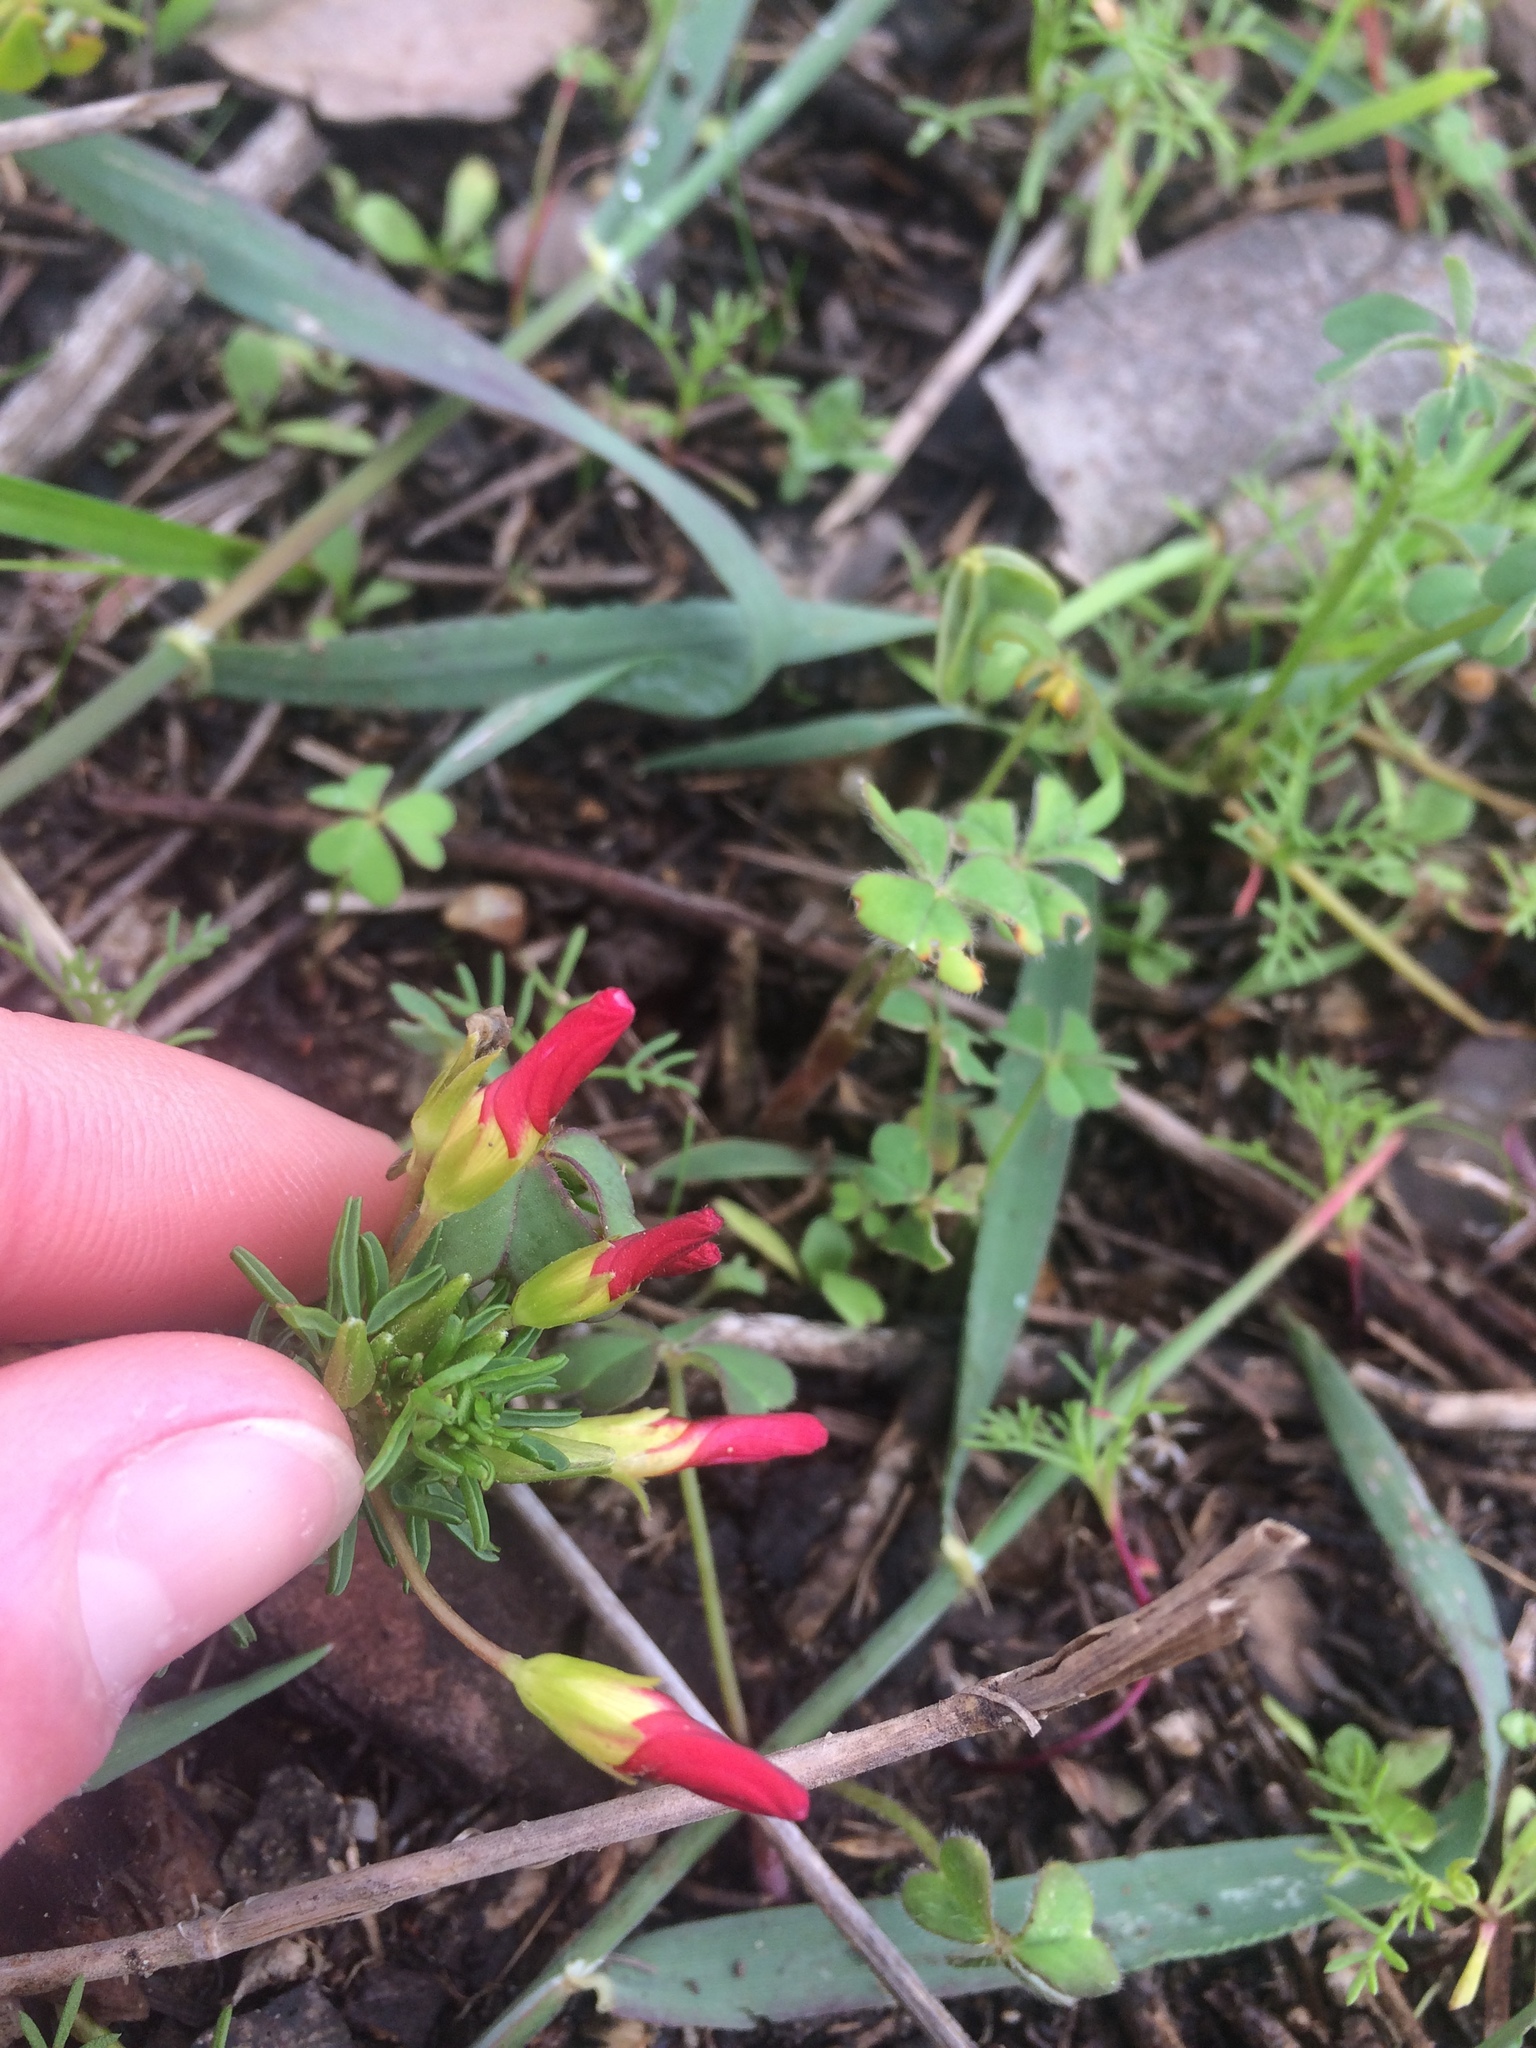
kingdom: Plantae
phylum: Tracheophyta
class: Magnoliopsida
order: Oxalidales
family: Oxalidaceae
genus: Oxalis
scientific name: Oxalis tenuifolia
